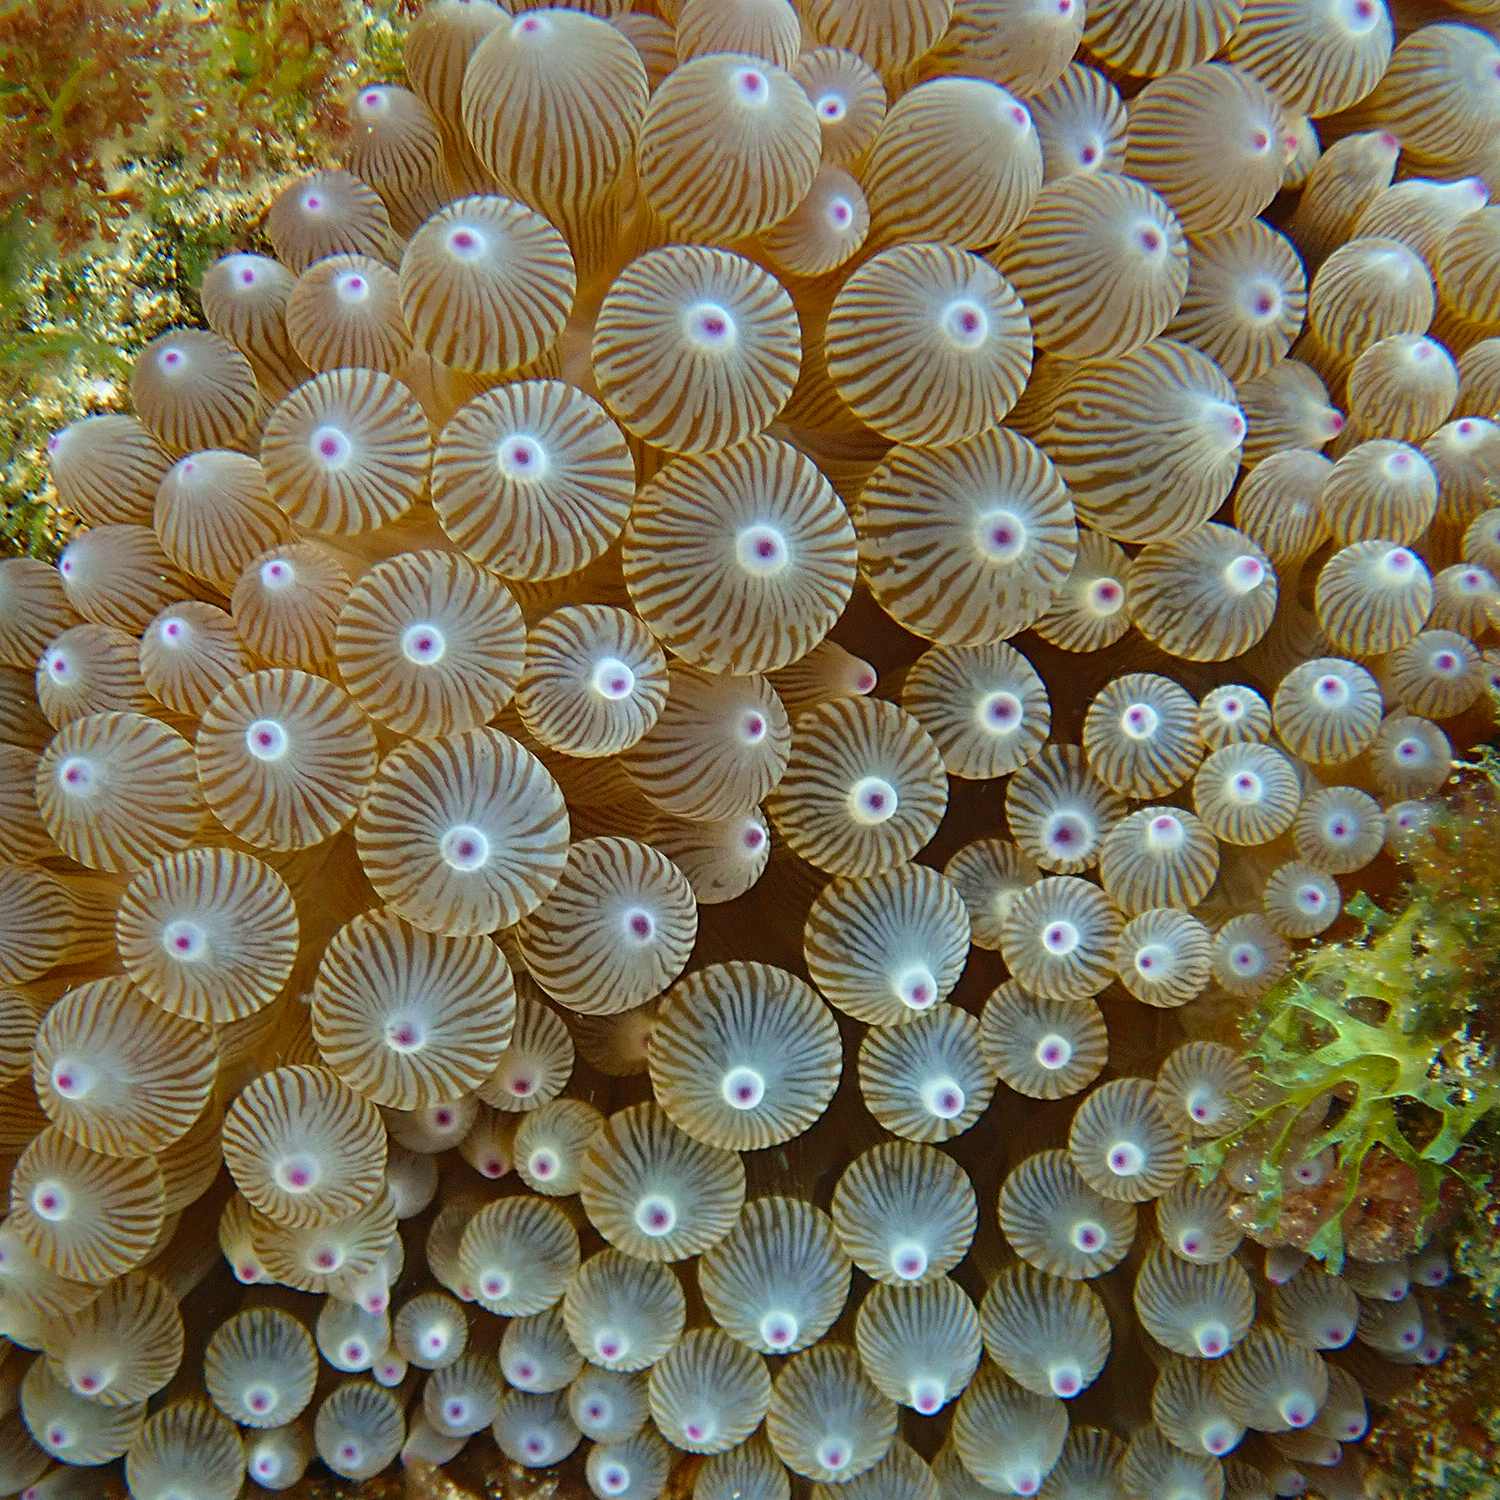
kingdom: Animalia
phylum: Cnidaria
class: Anthozoa
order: Actiniaria
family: Actiniidae
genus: Entacmaea
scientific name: Entacmaea quadricolor
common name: Bulb tentacle sea anemone
